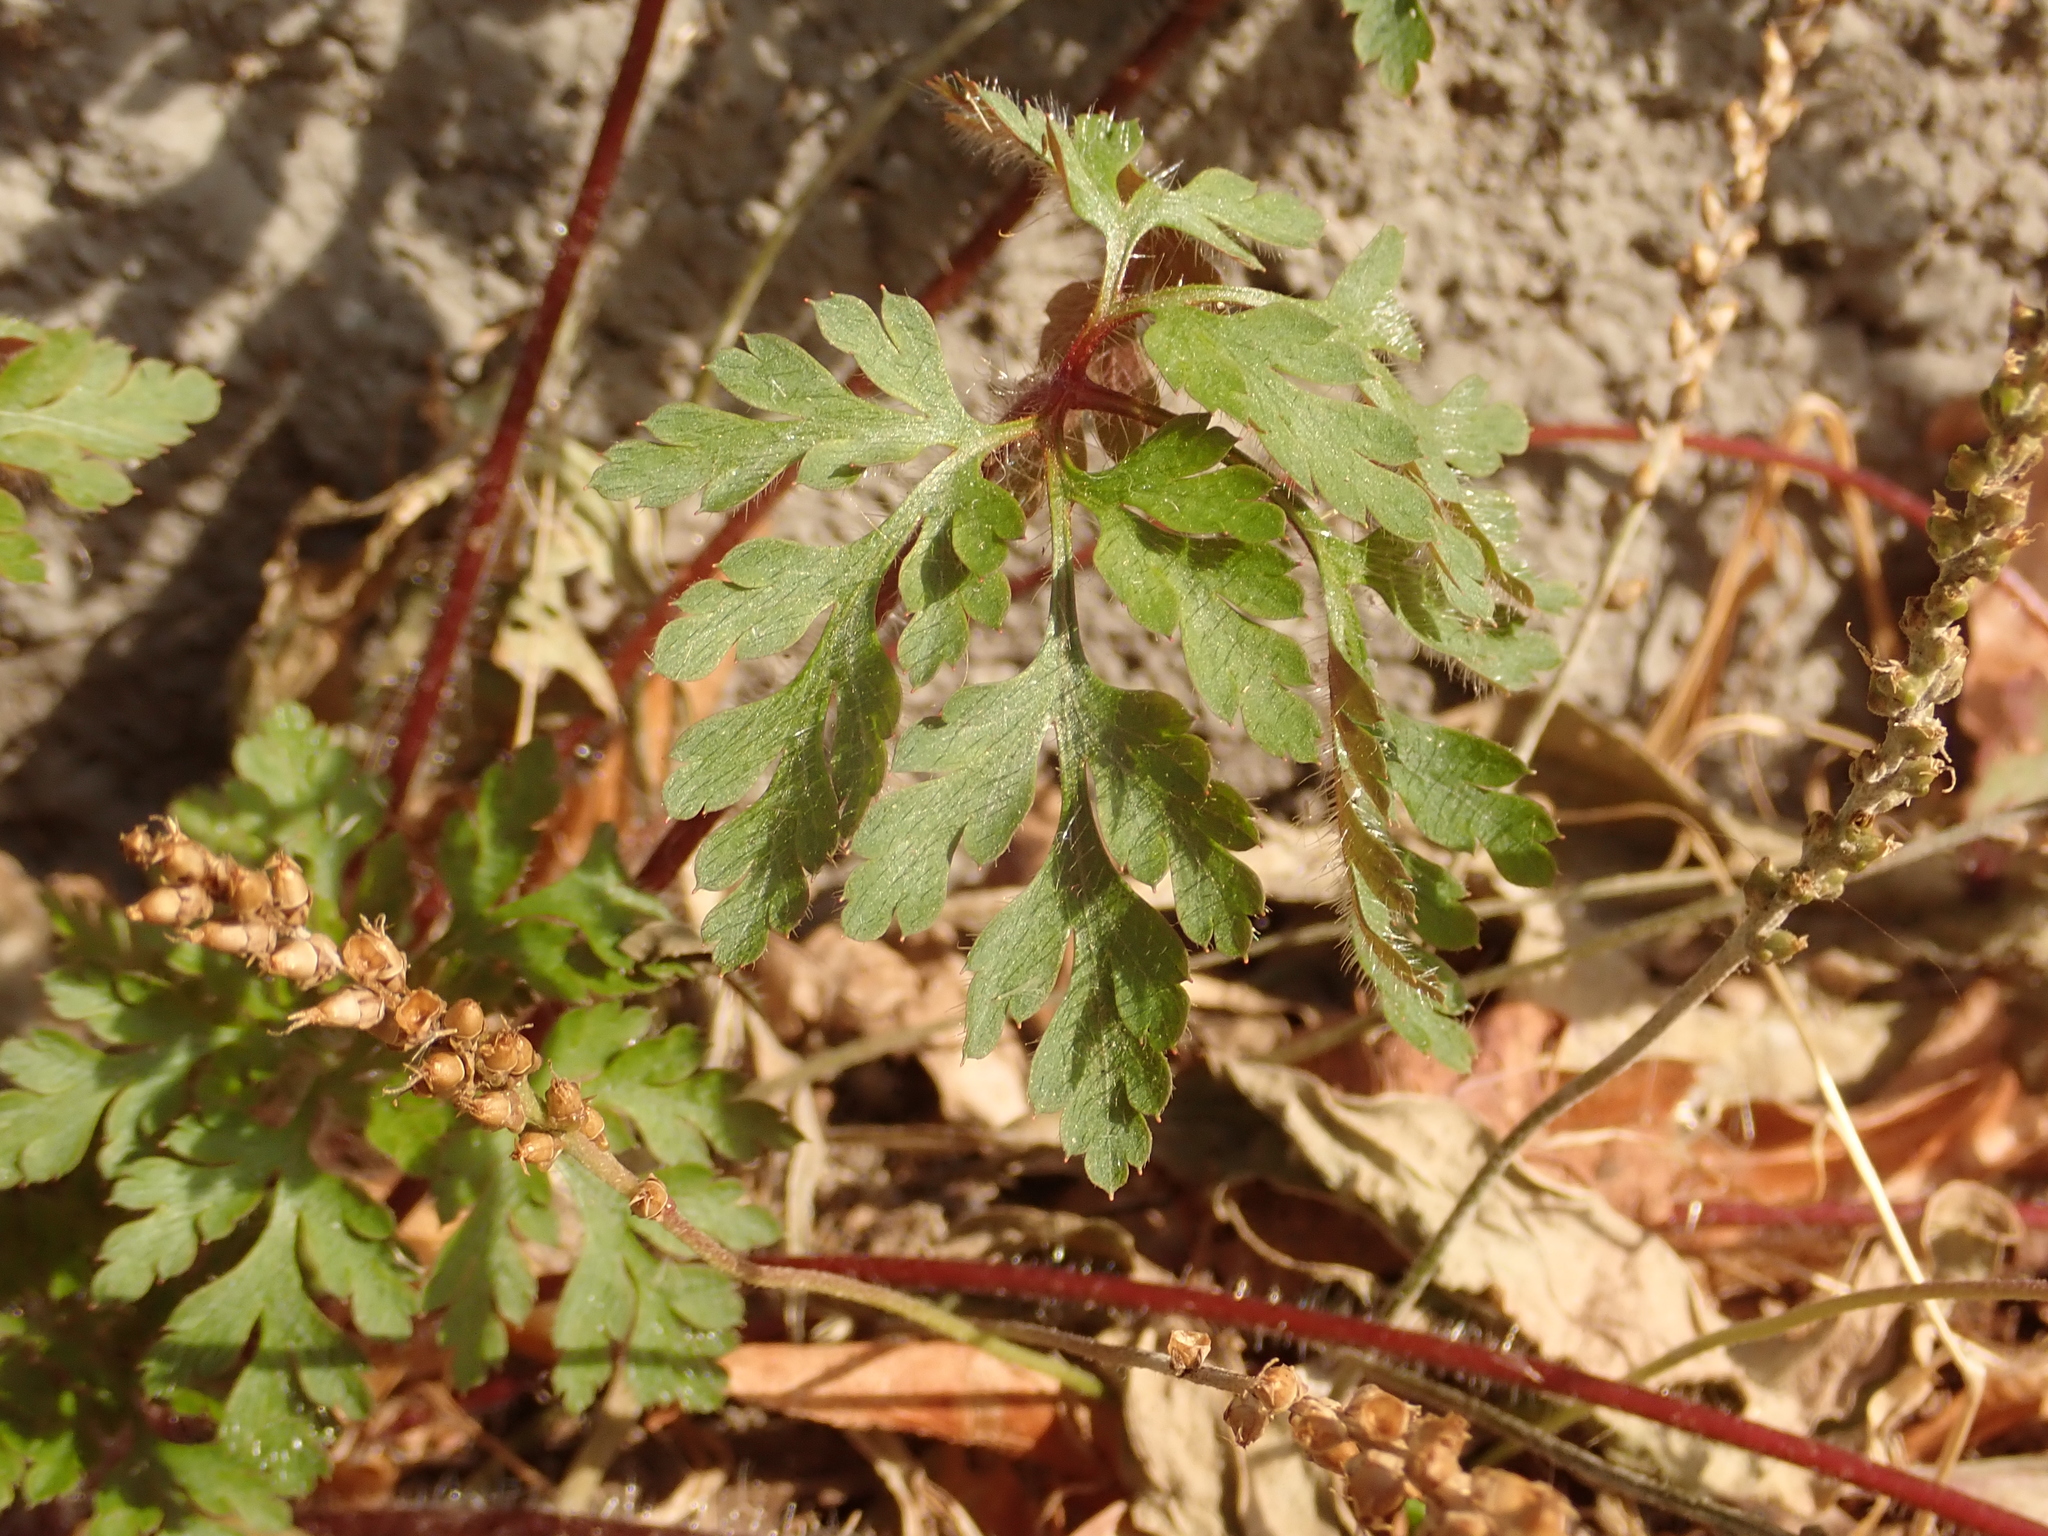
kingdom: Plantae
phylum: Tracheophyta
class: Magnoliopsida
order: Geraniales
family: Geraniaceae
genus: Geranium
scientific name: Geranium robertianum
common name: Herb-robert
